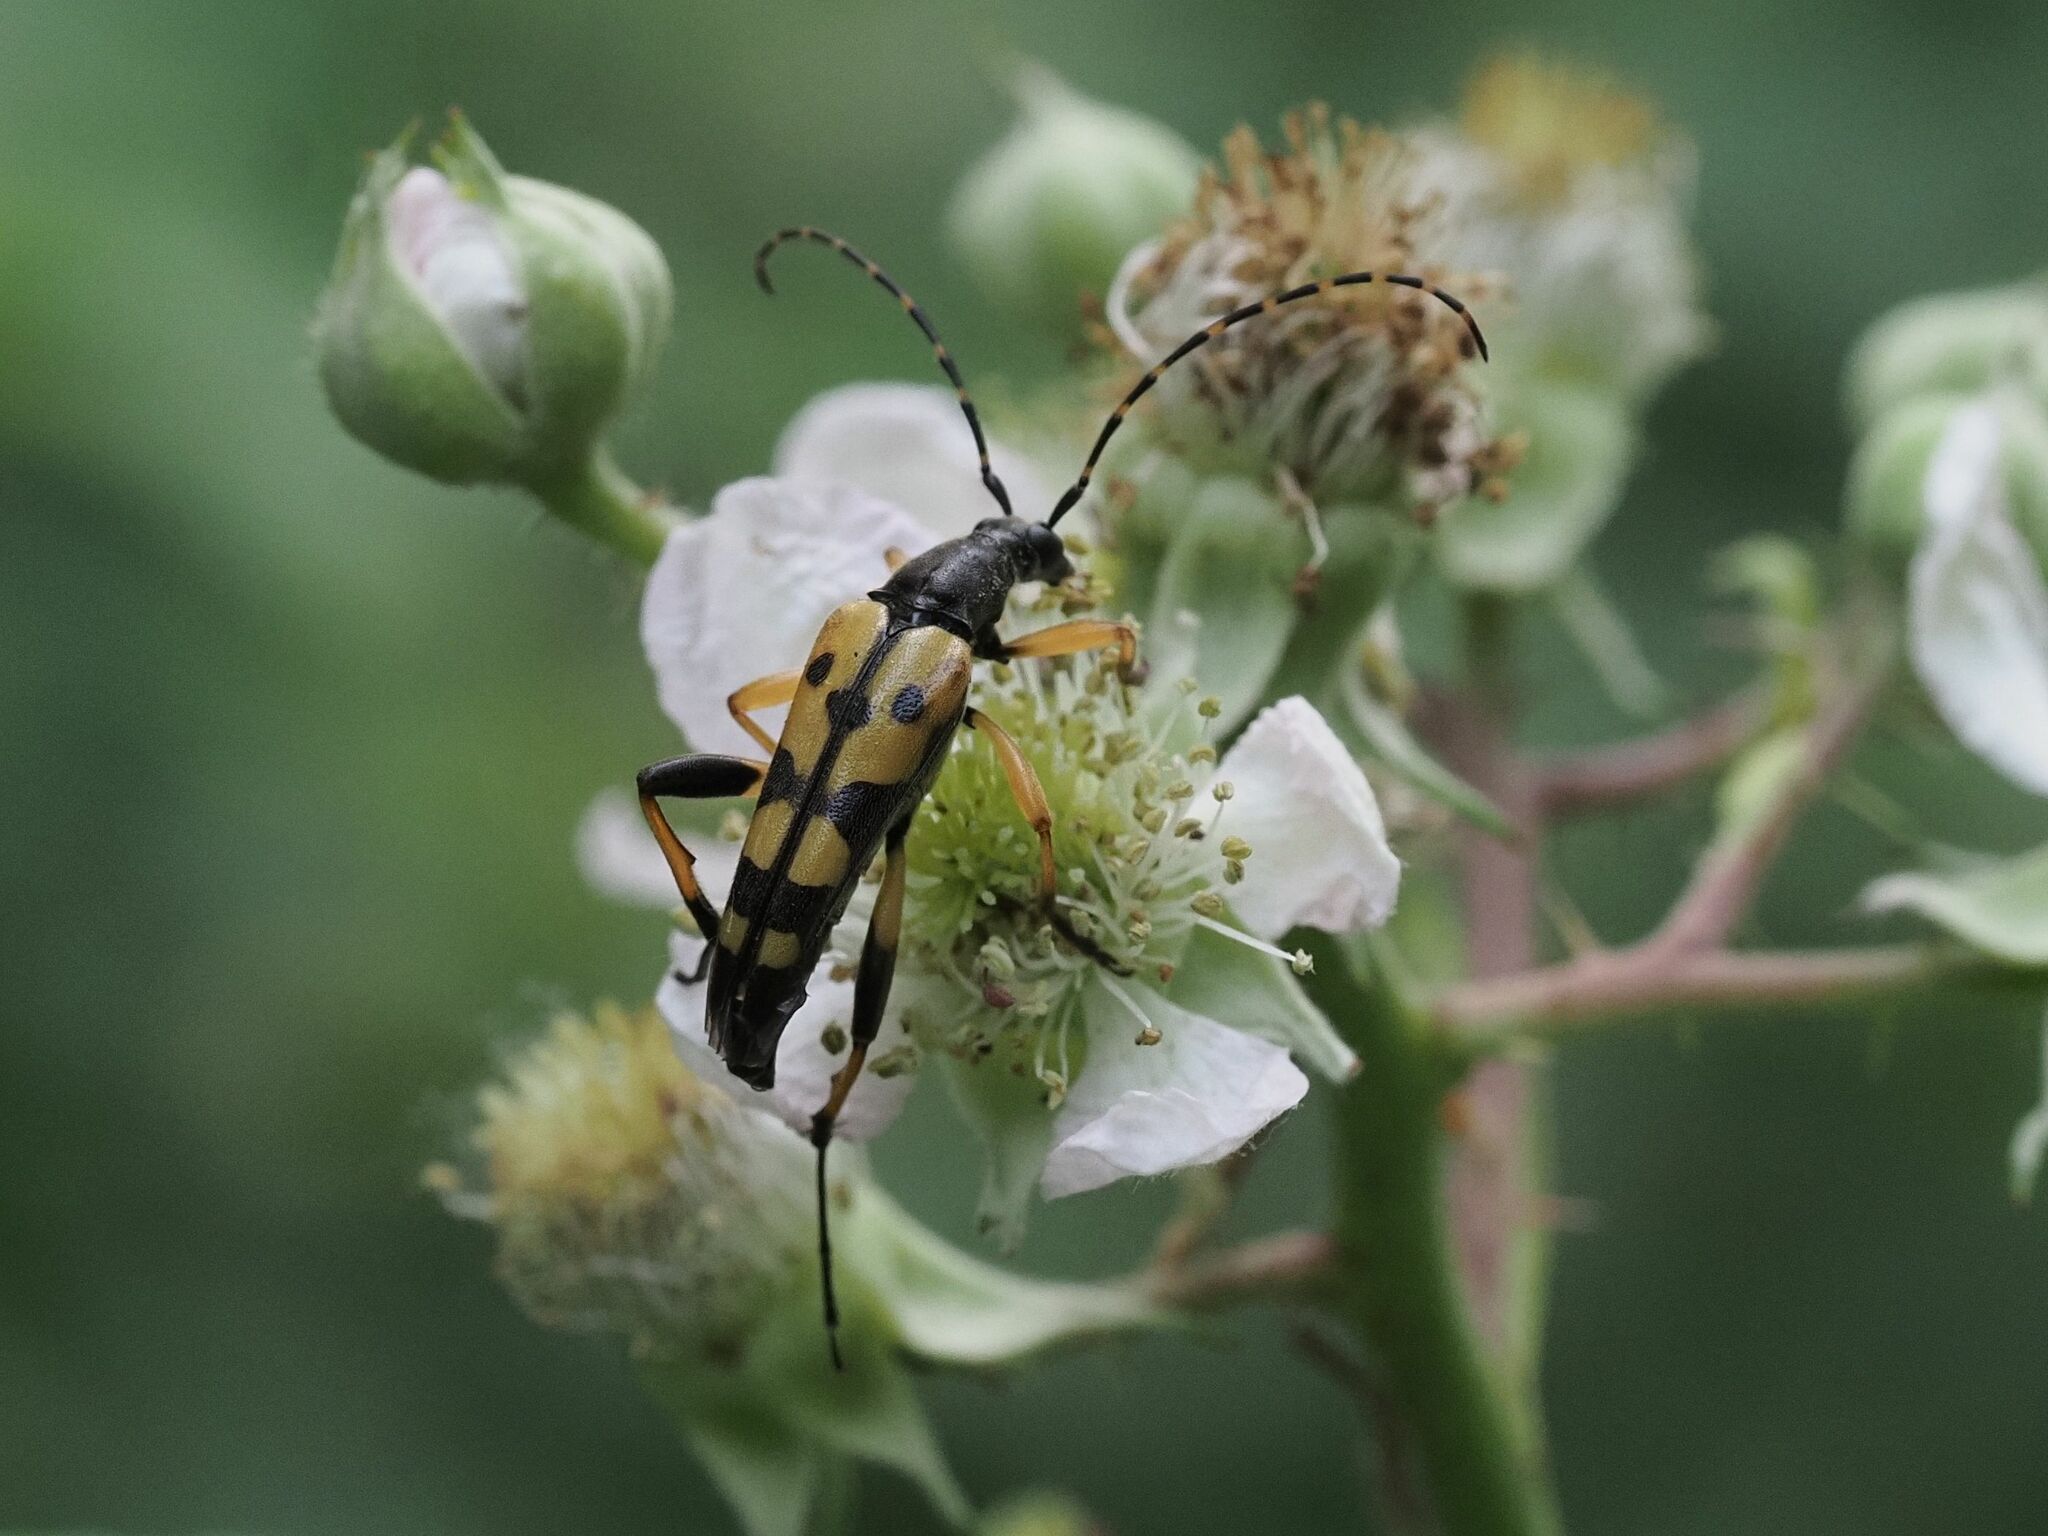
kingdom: Animalia
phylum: Arthropoda
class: Insecta
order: Coleoptera
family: Cerambycidae
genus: Rutpela
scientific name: Rutpela maculata
